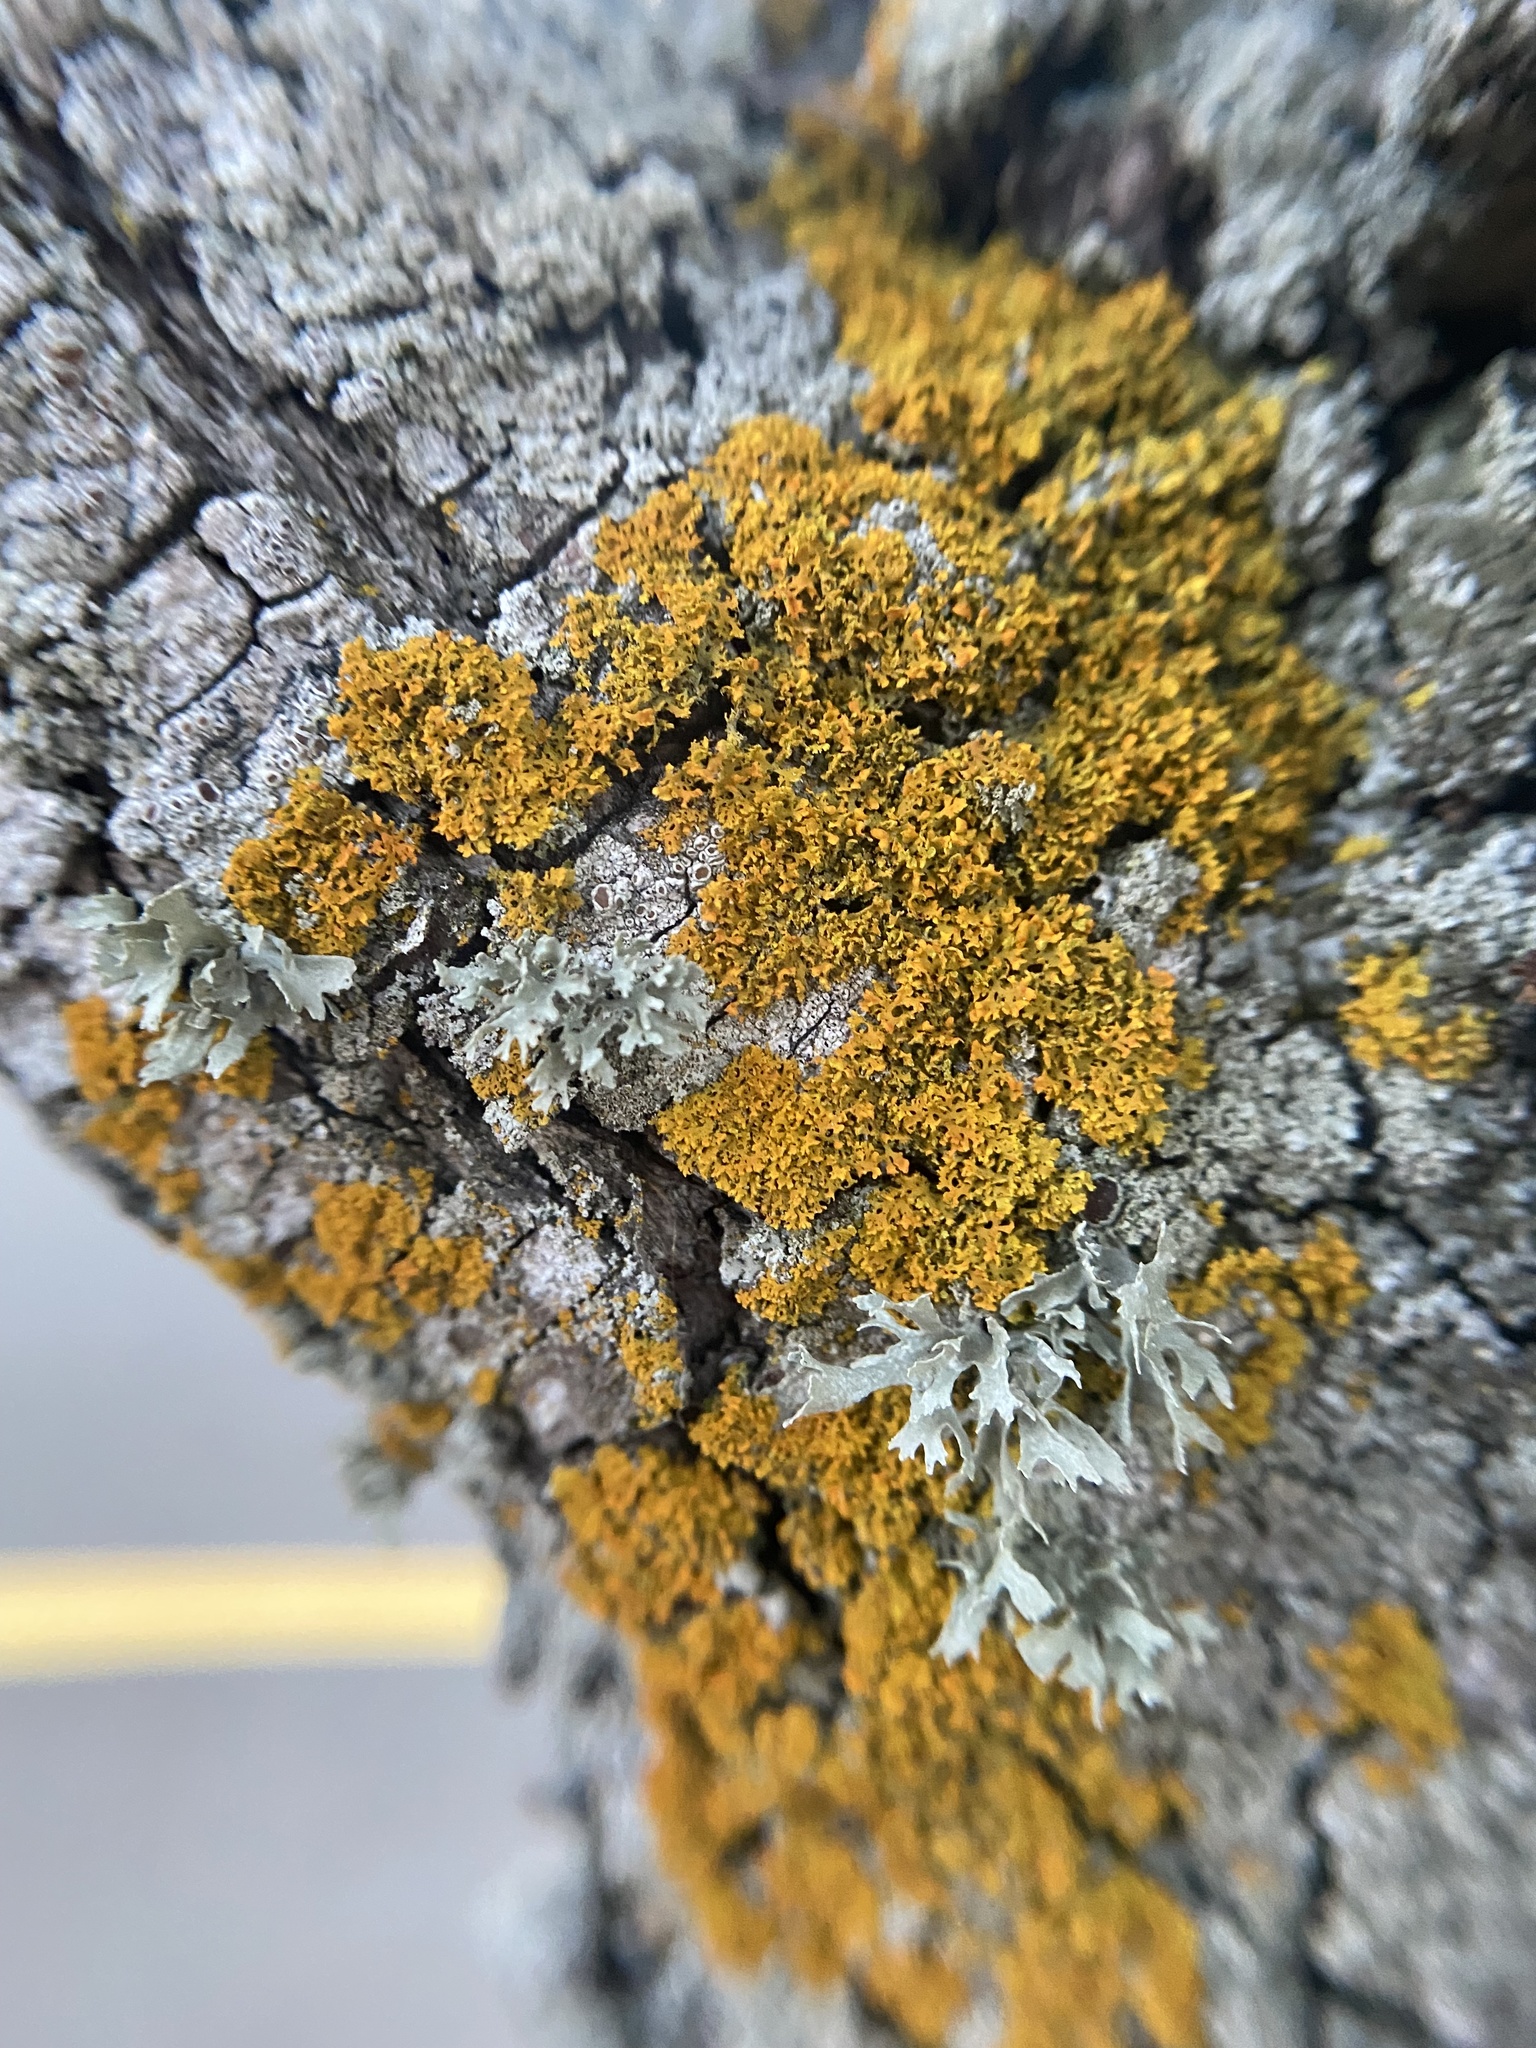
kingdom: Fungi
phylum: Ascomycota
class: Lecanoromycetes
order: Teloschistales
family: Teloschistaceae
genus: Gallowayella
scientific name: Gallowayella weberi
